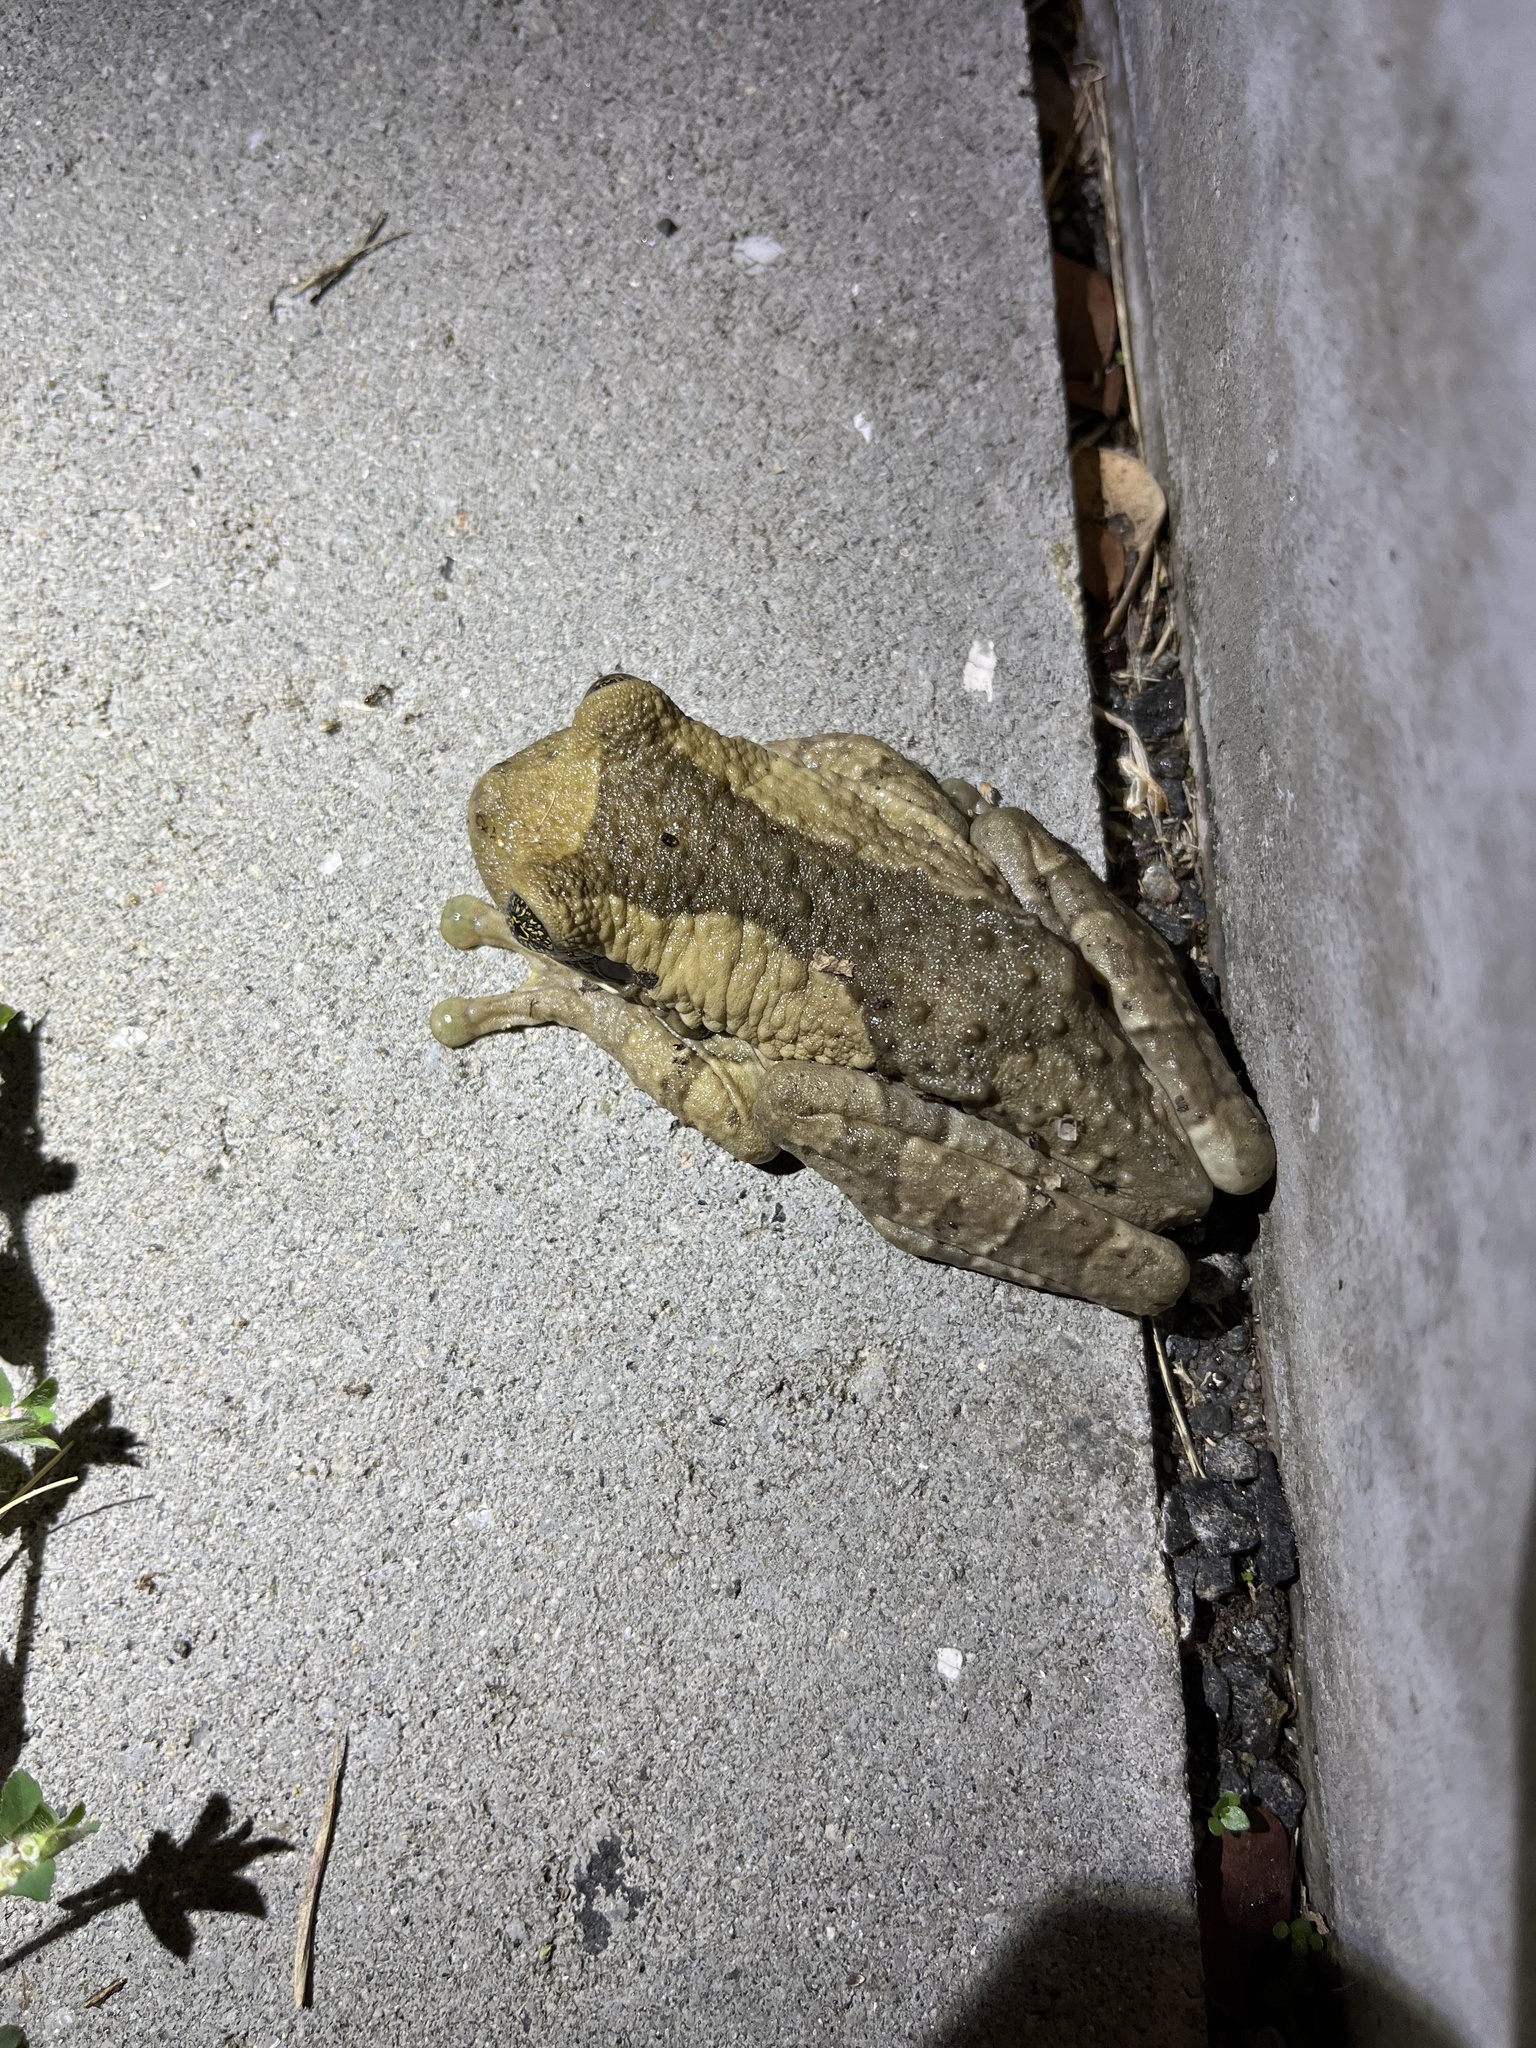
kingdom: Animalia
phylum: Chordata
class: Amphibia
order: Anura
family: Hylidae
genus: Trachycephalus
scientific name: Trachycephalus vermiculatus
